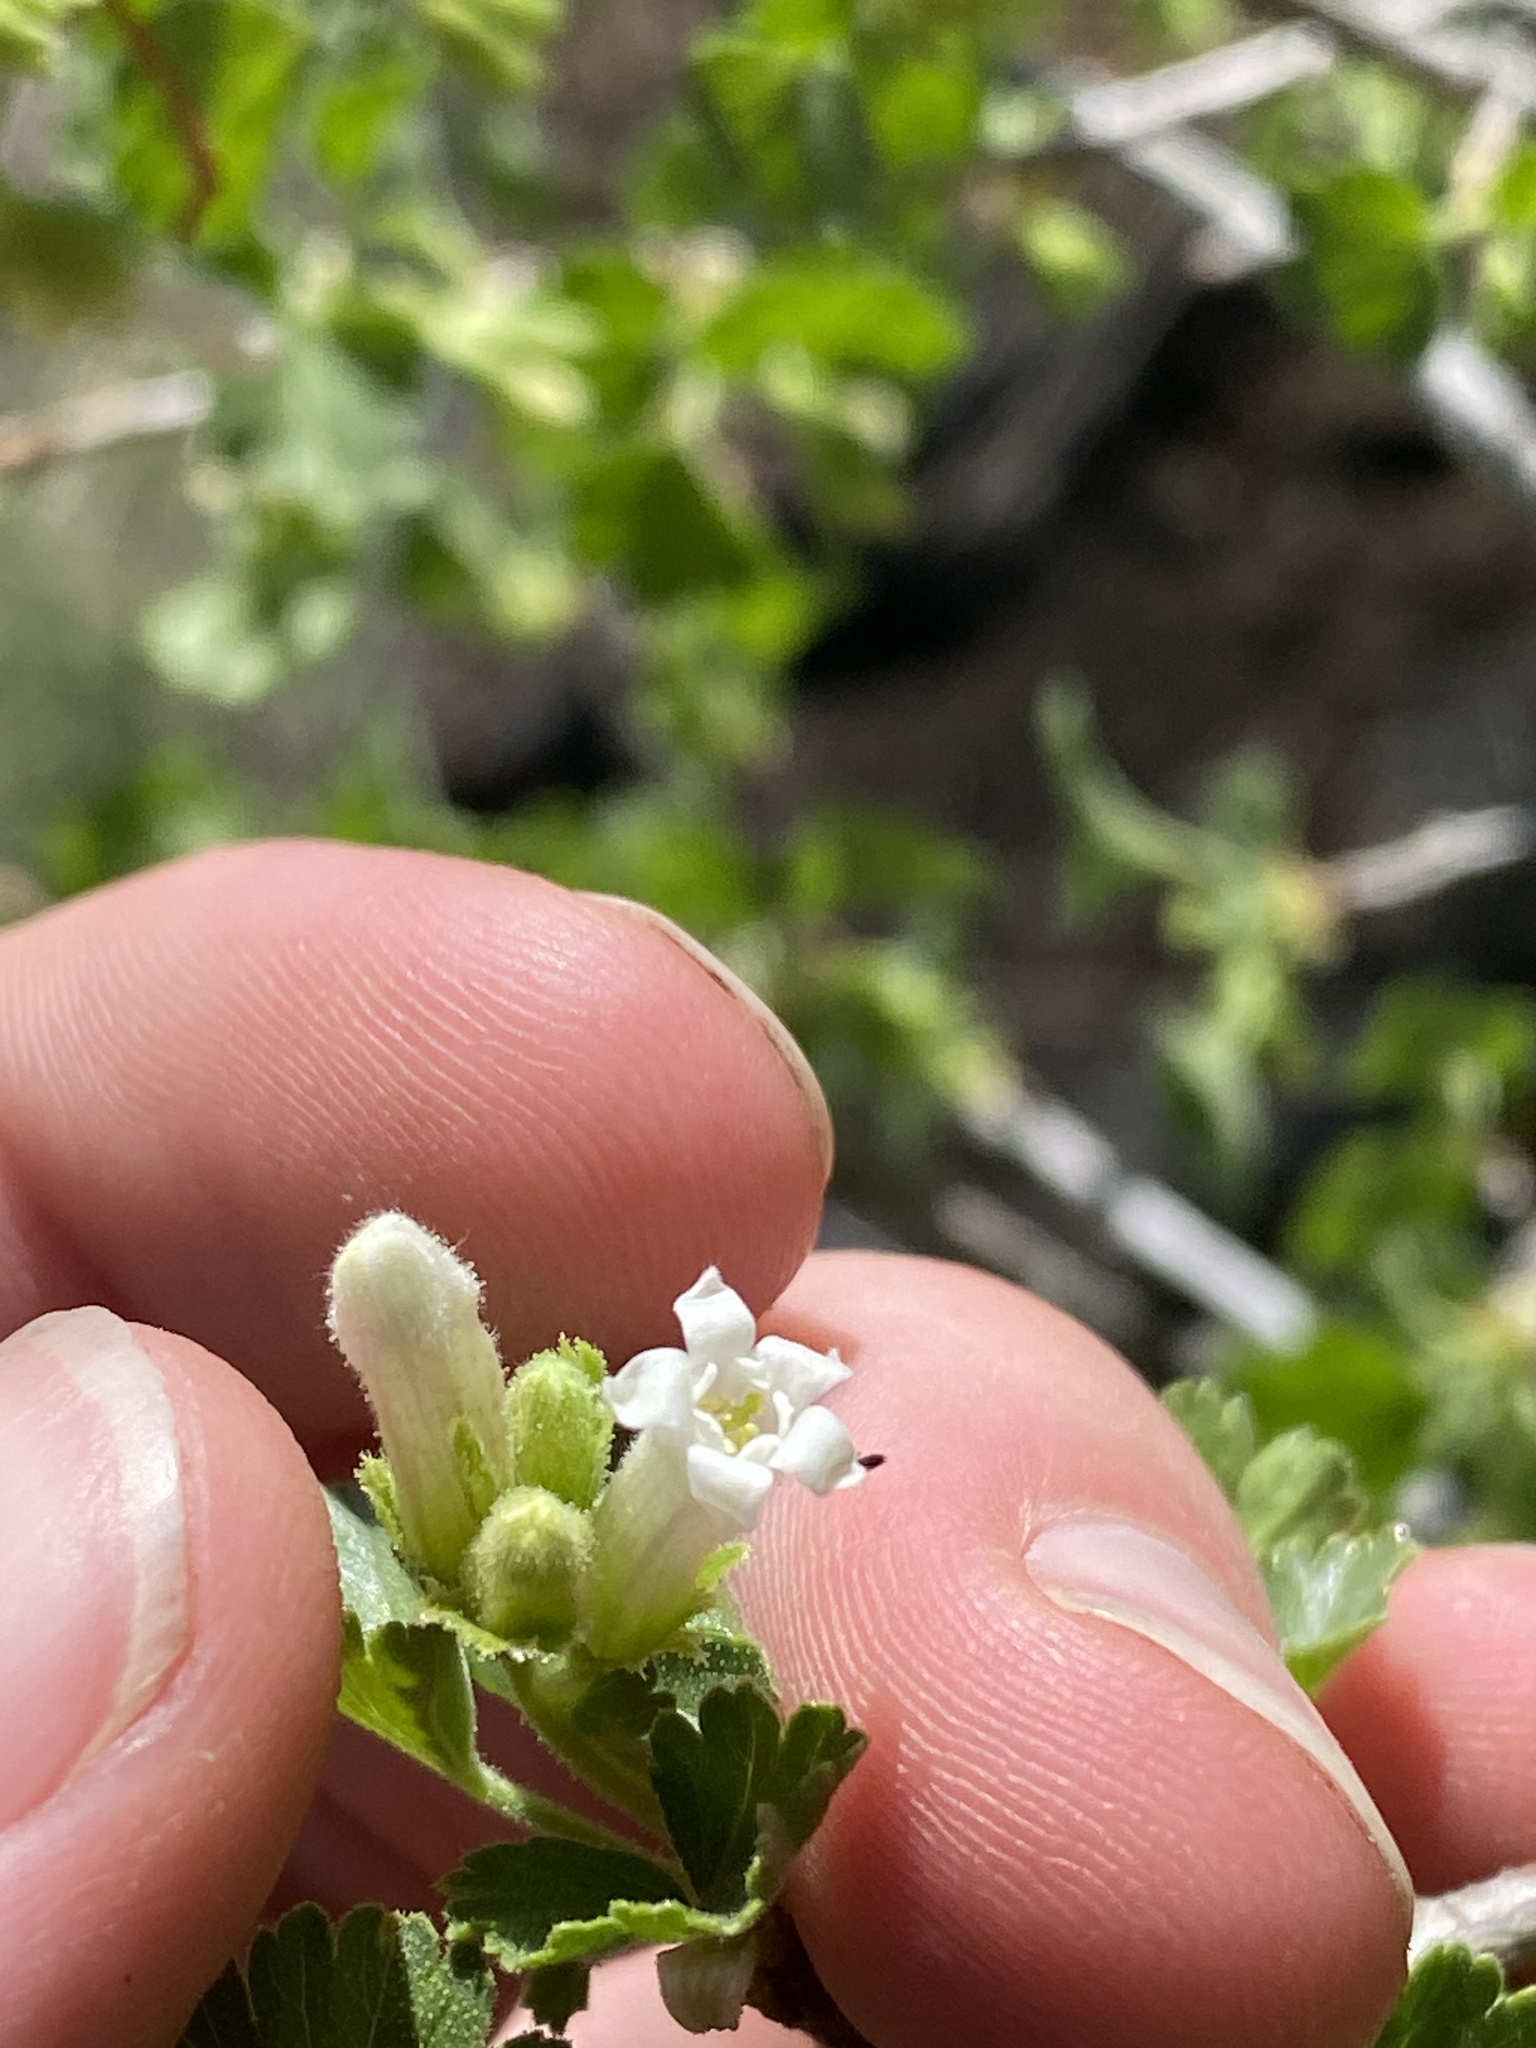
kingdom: Plantae
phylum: Tracheophyta
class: Magnoliopsida
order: Saxifragales
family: Grossulariaceae
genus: Ribes
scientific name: Ribes cereum
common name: Wax currant
